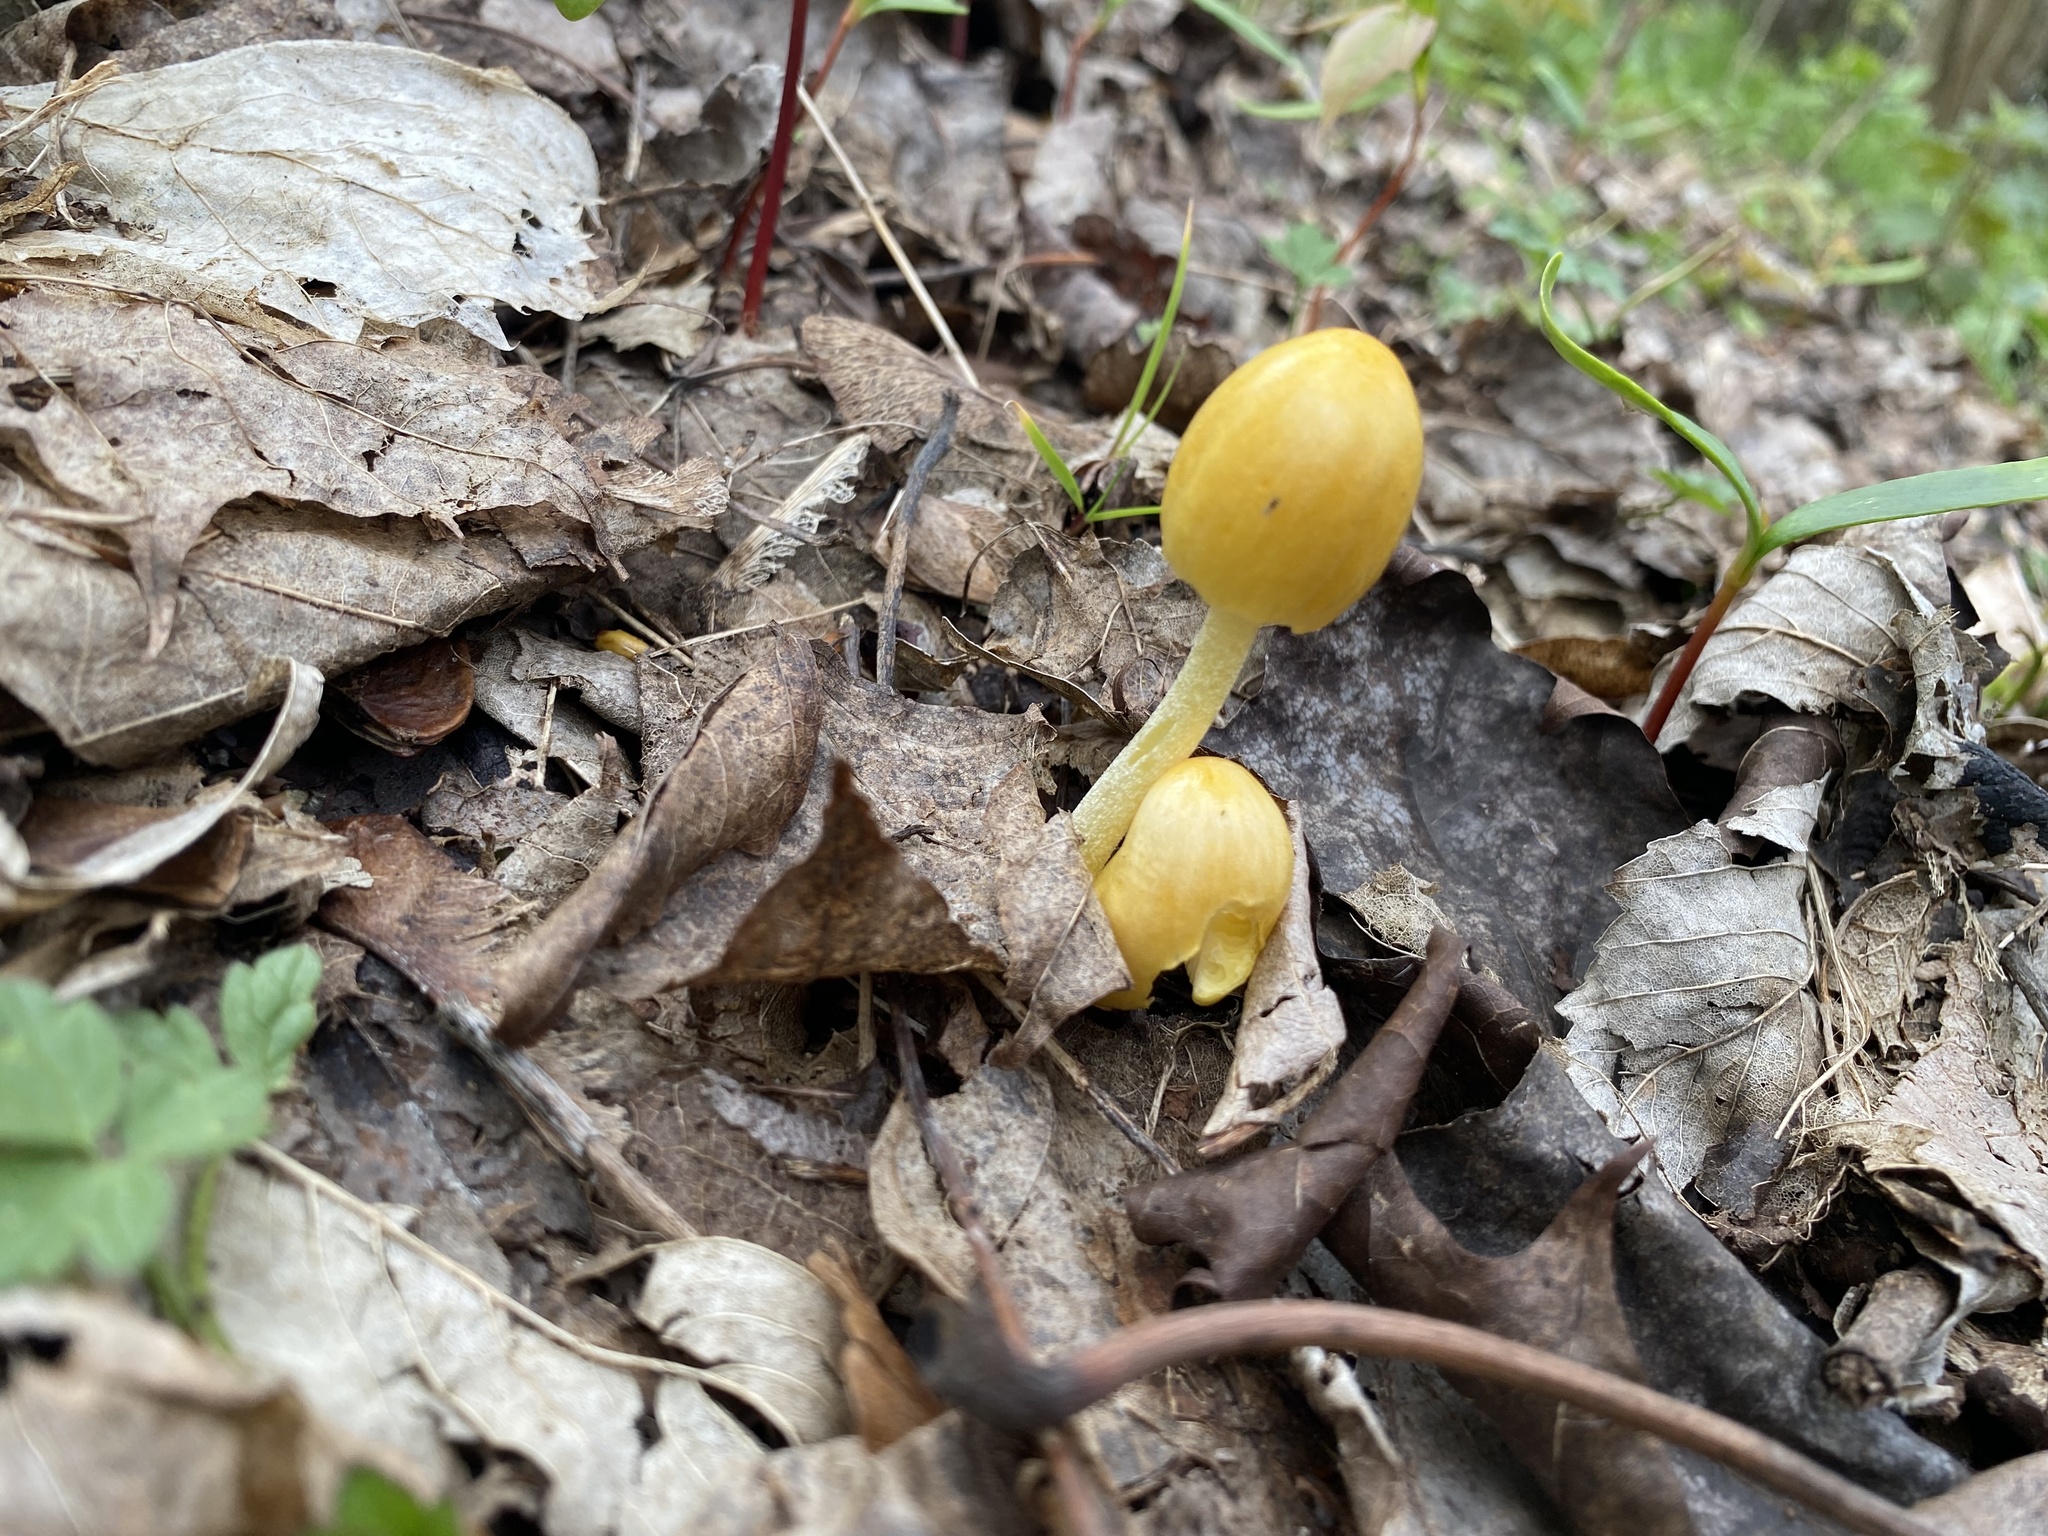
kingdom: Fungi
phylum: Basidiomycota
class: Agaricomycetes
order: Agaricales
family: Bolbitiaceae
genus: Bolbitius
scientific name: Bolbitius titubans
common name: Yellow fieldcap
